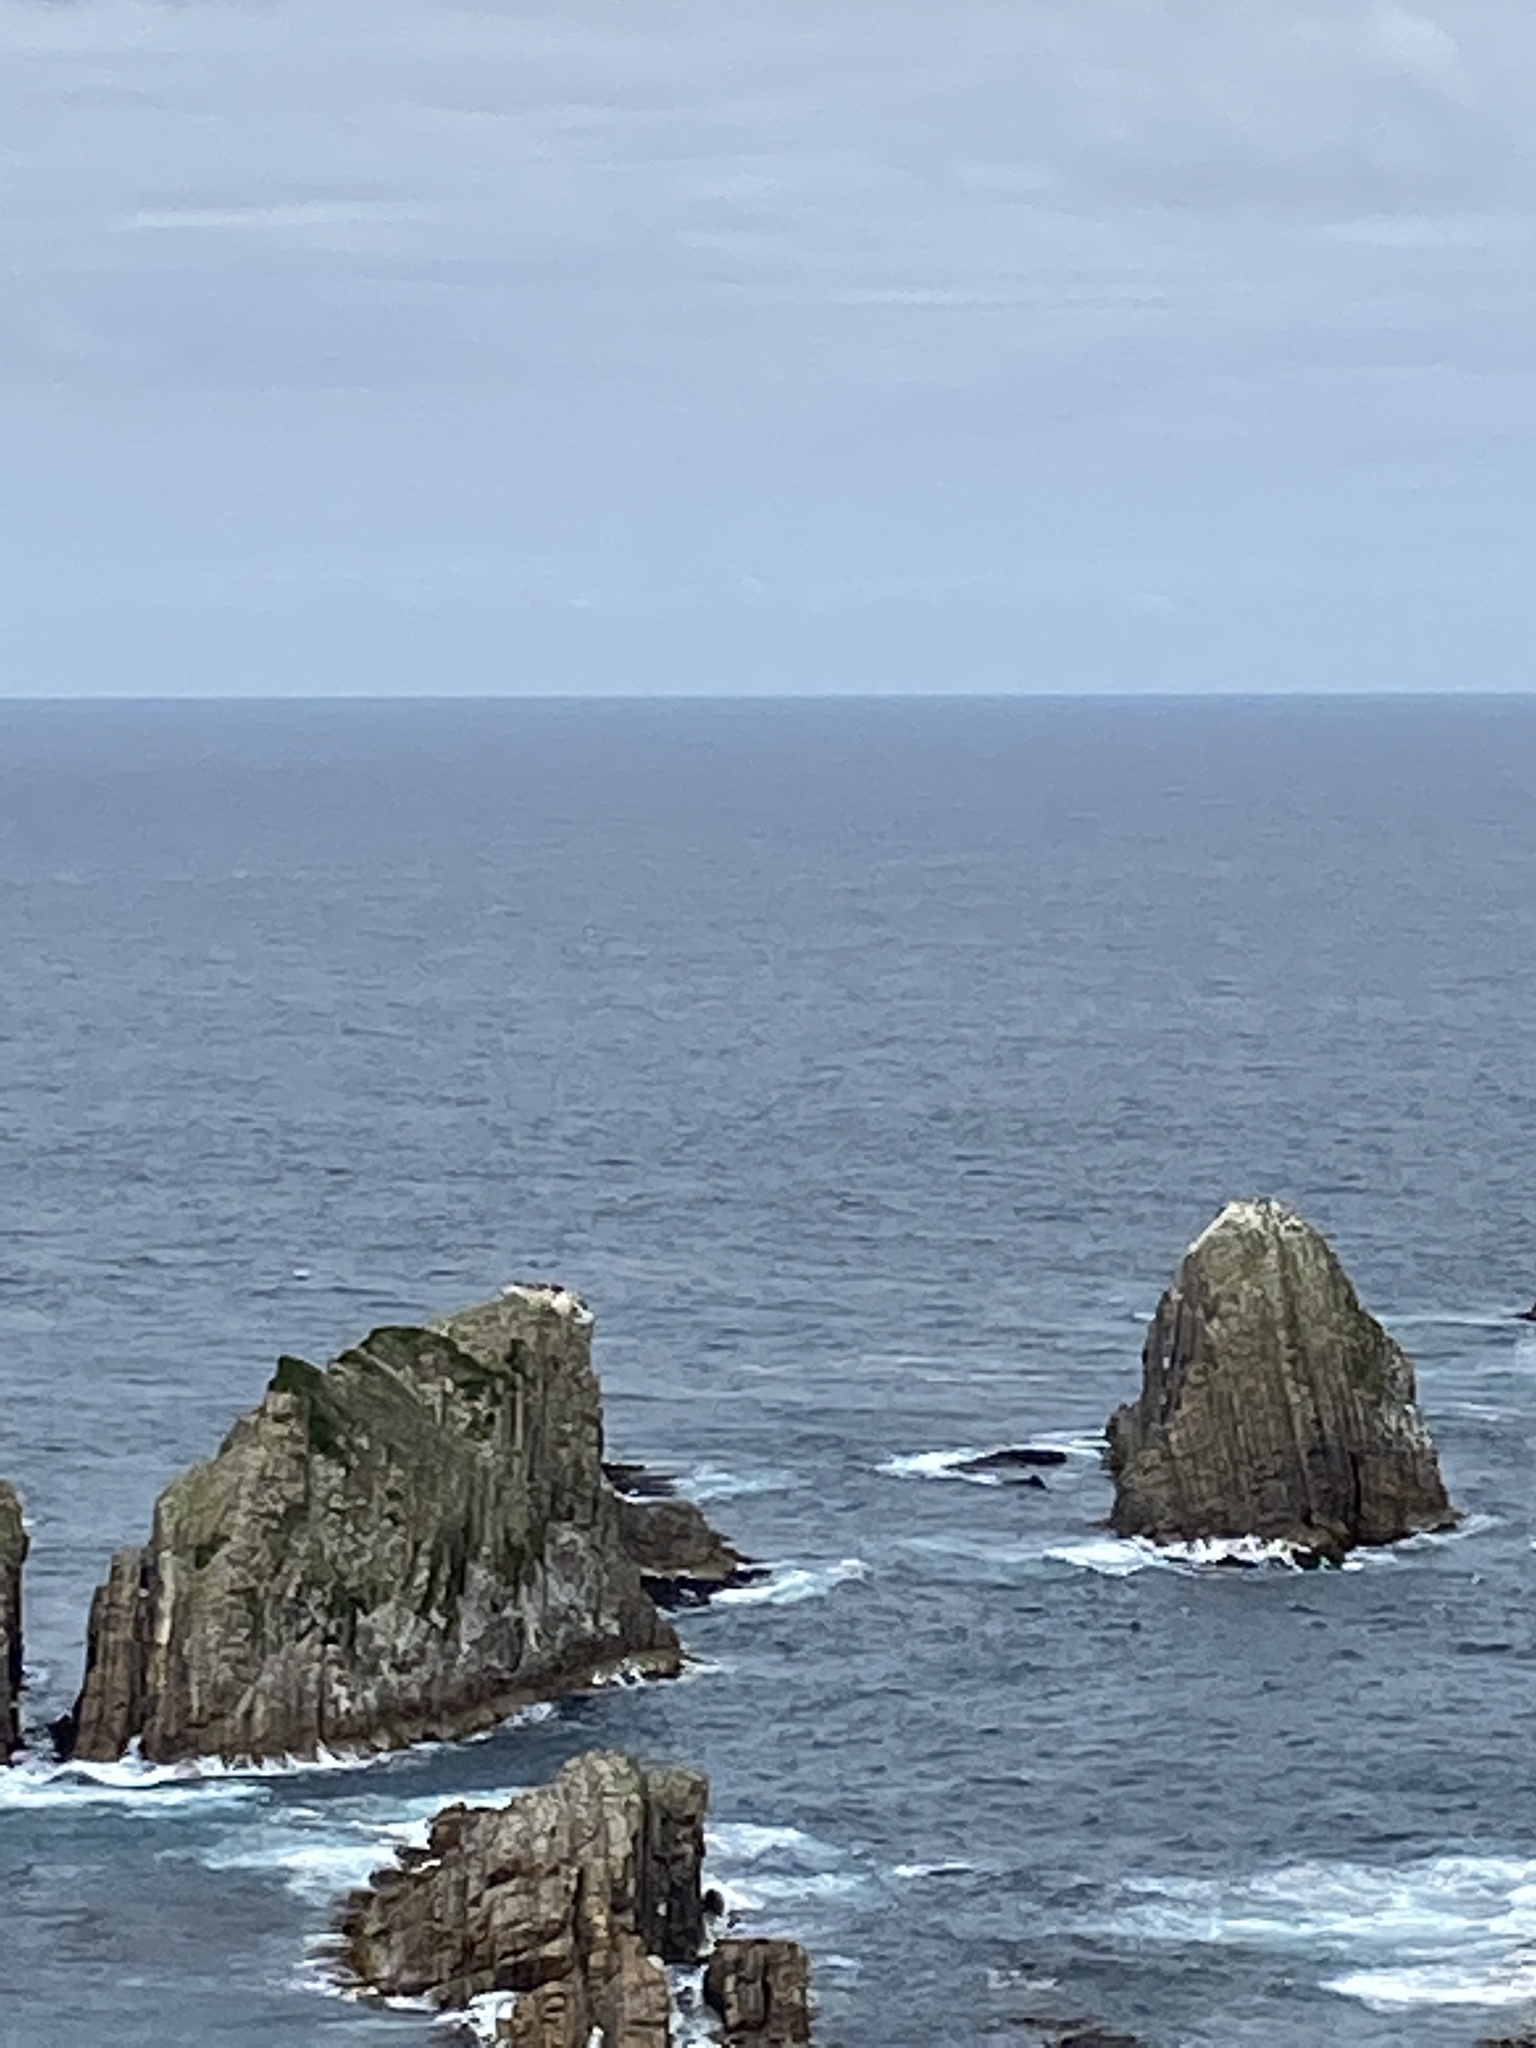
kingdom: Animalia
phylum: Chordata
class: Aves
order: Suliformes
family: Phalacrocoracidae
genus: Leucocarbo
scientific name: Leucocarbo chalconotus
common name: Stewart shag
